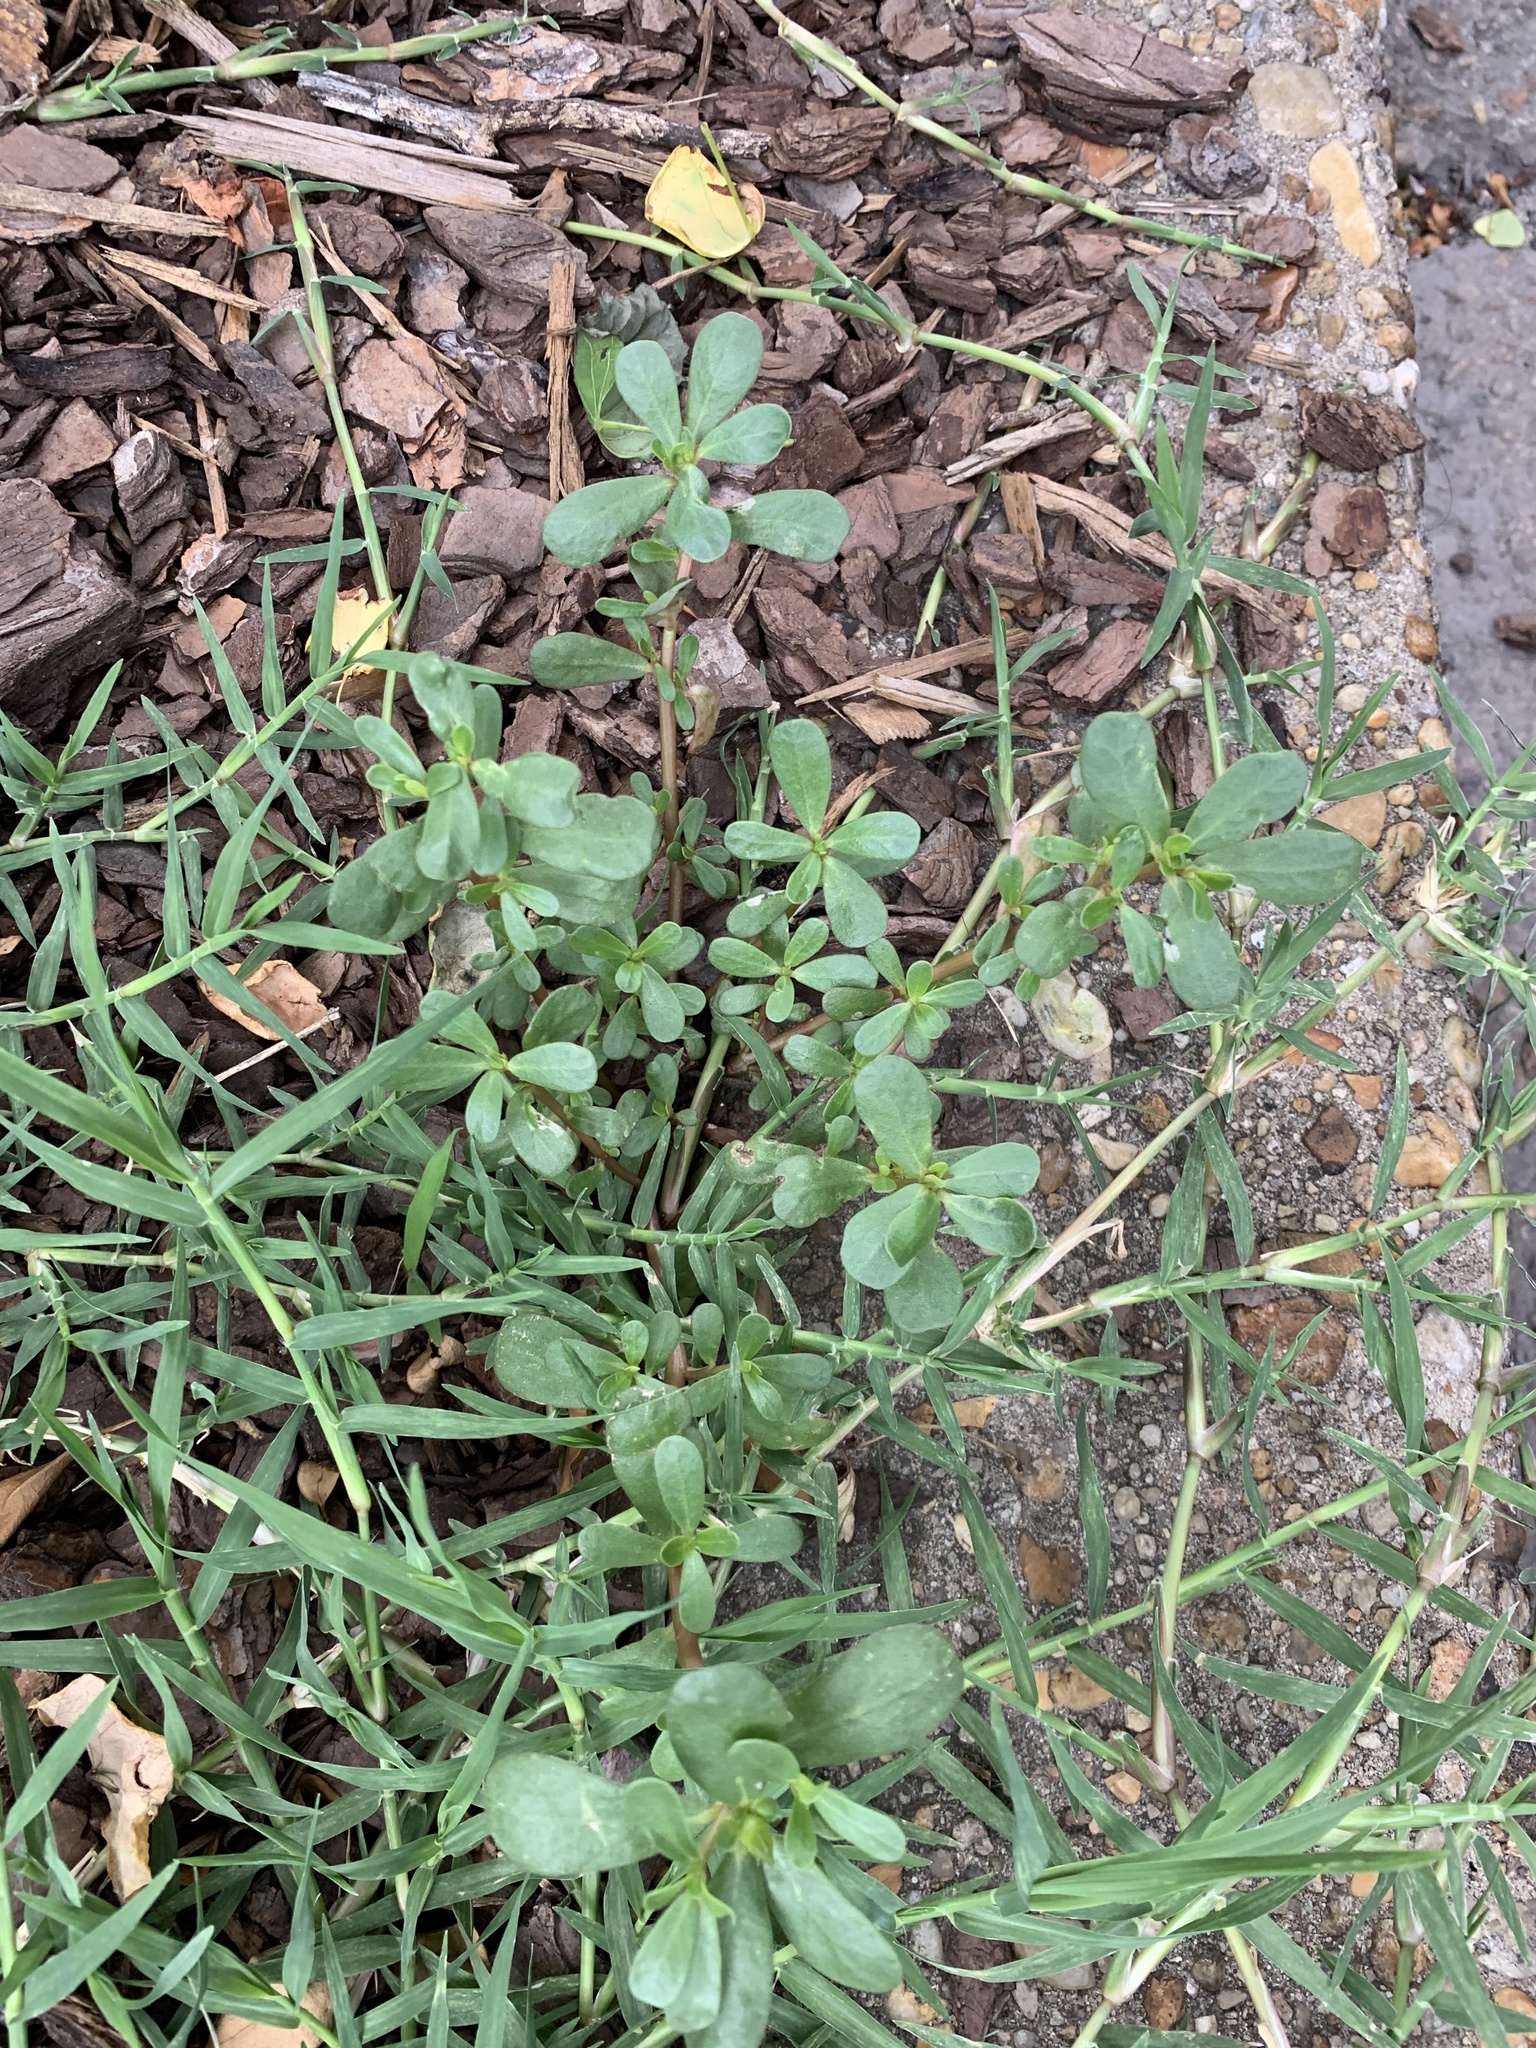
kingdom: Plantae
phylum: Tracheophyta
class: Magnoliopsida
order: Caryophyllales
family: Portulacaceae
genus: Portulaca
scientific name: Portulaca oleracea
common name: Common purslane
